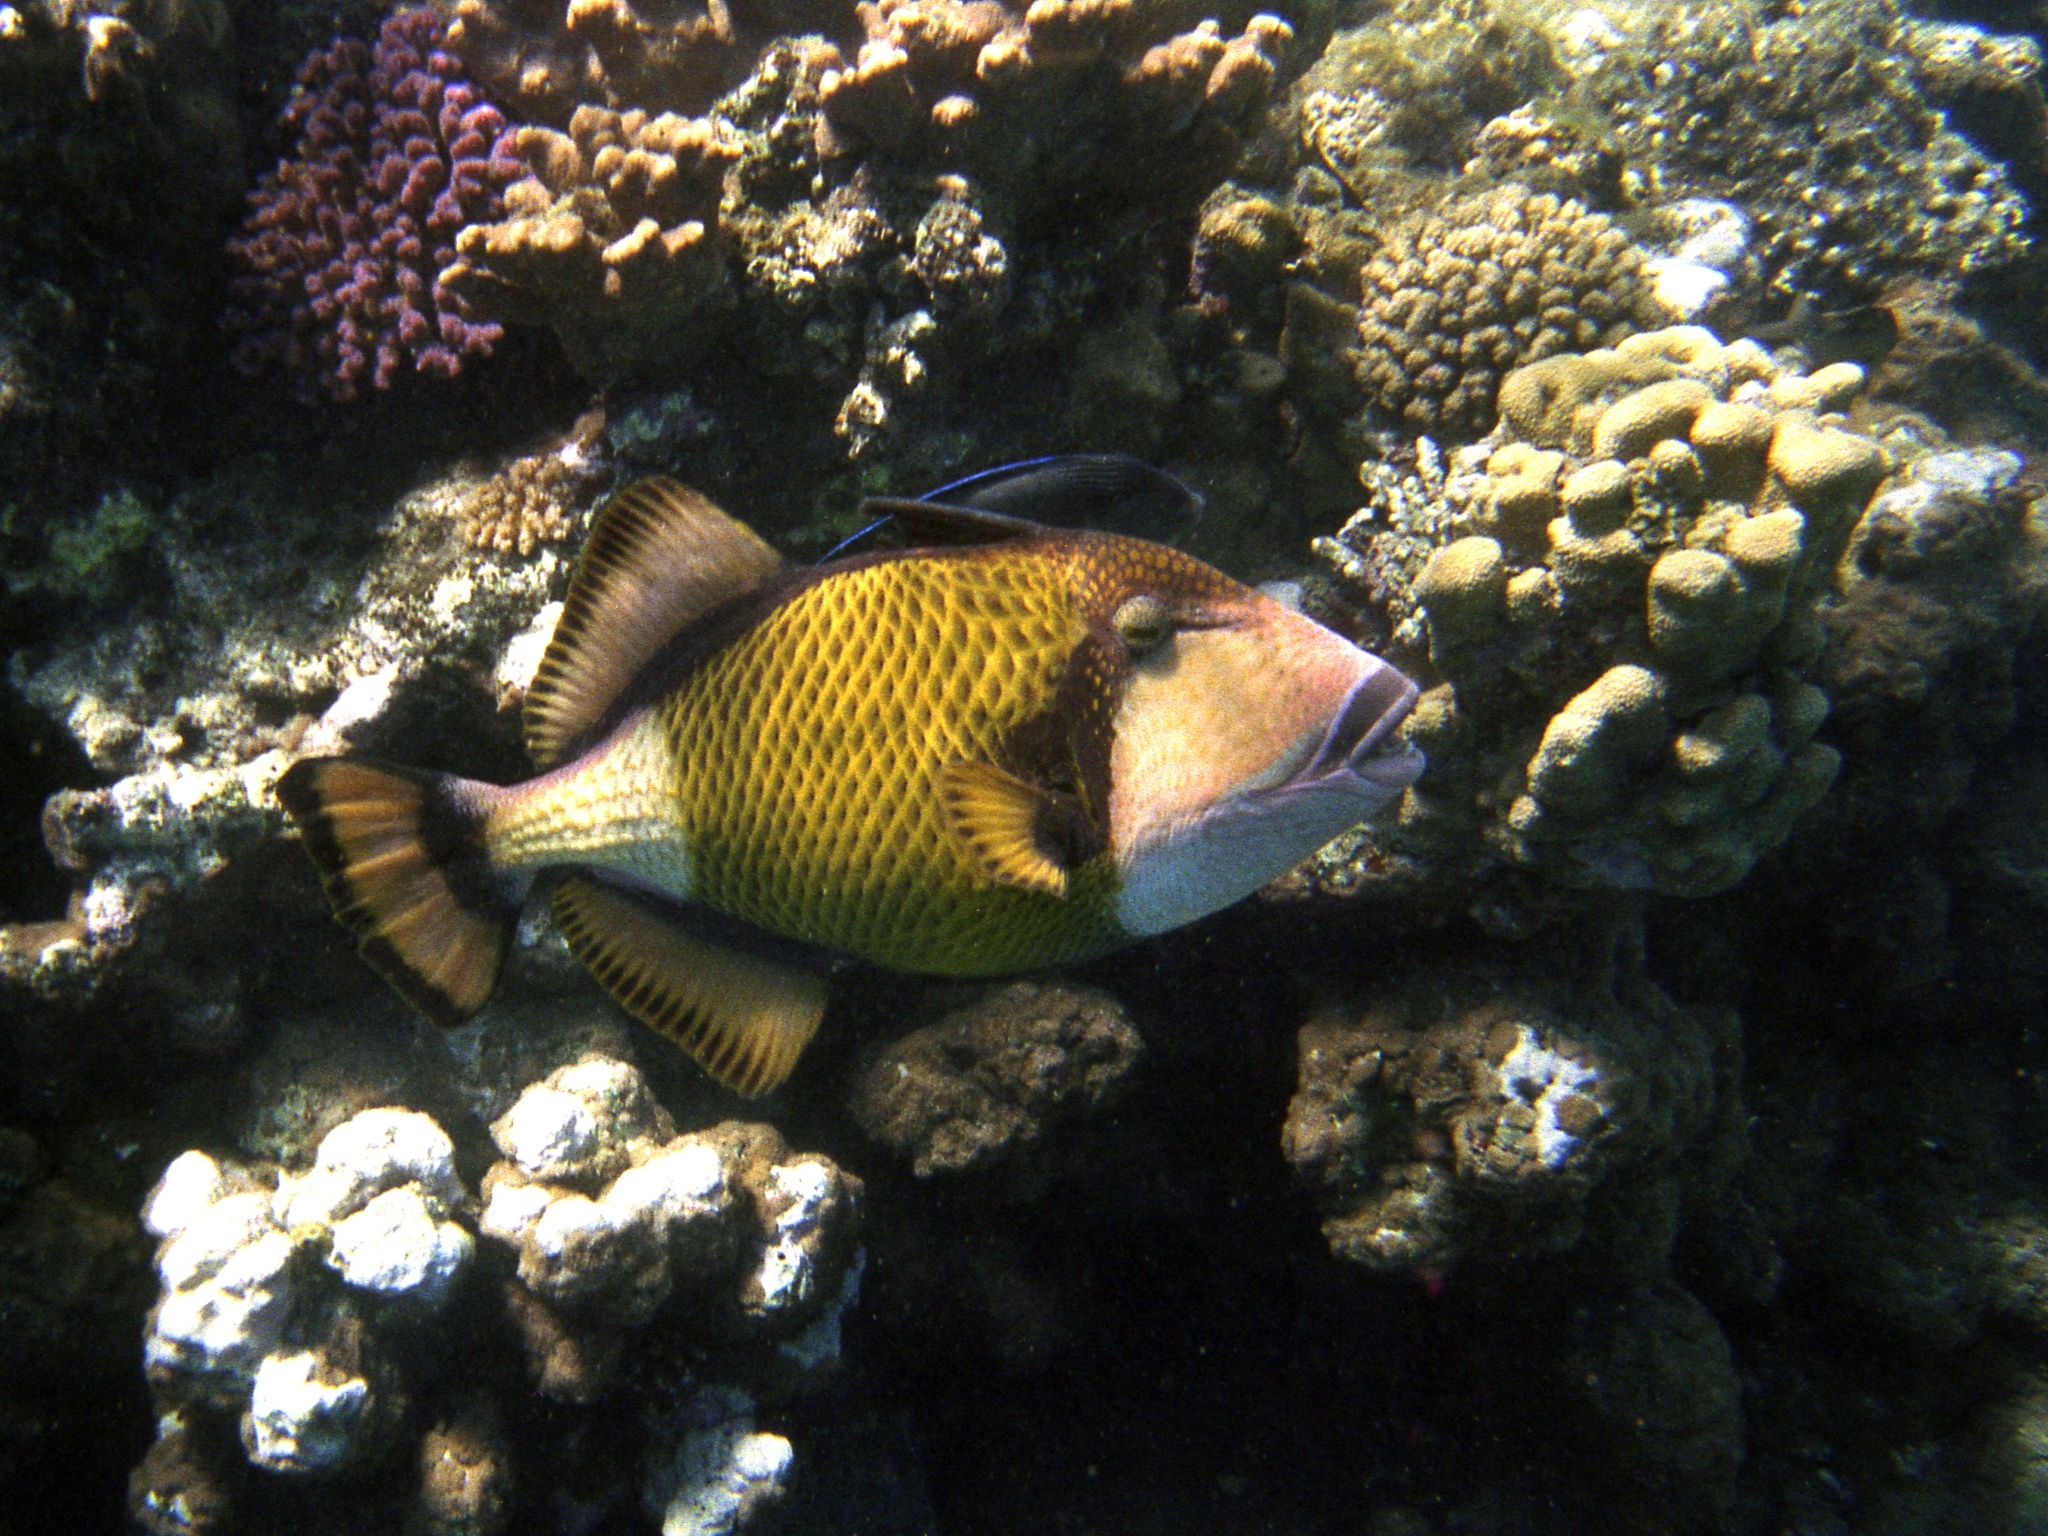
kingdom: Animalia
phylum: Chordata
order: Tetraodontiformes
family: Balistidae
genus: Balistoides
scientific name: Balistoides viridescens
